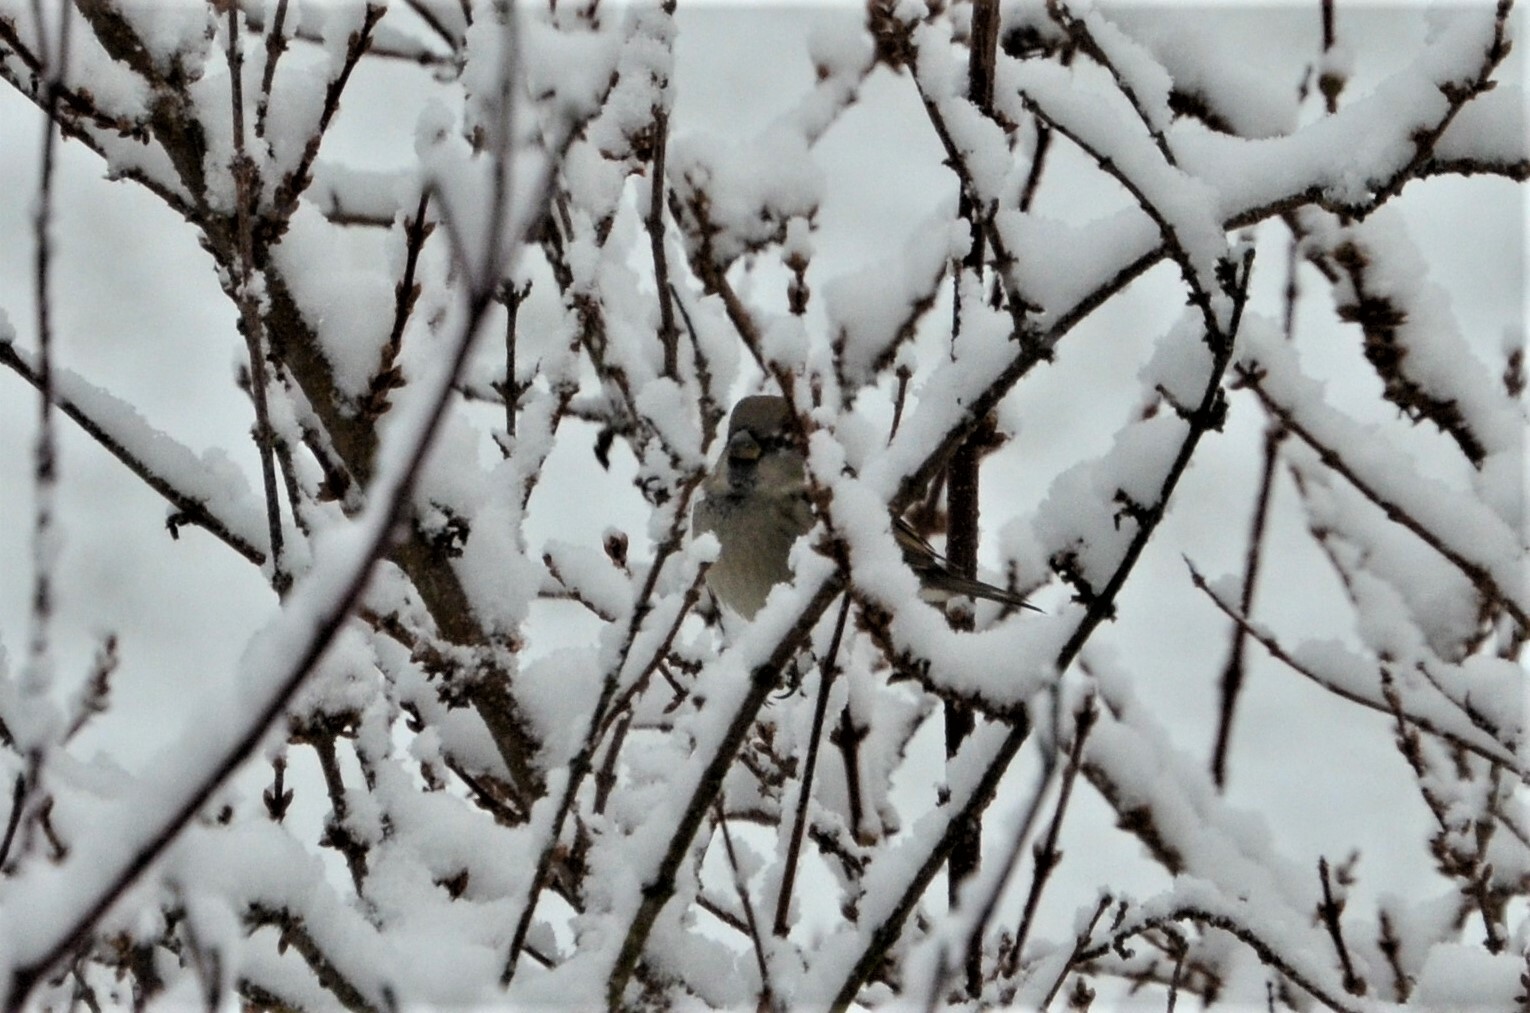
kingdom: Animalia
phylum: Chordata
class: Aves
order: Passeriformes
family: Passeridae
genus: Passer
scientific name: Passer domesticus
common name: House sparrow
